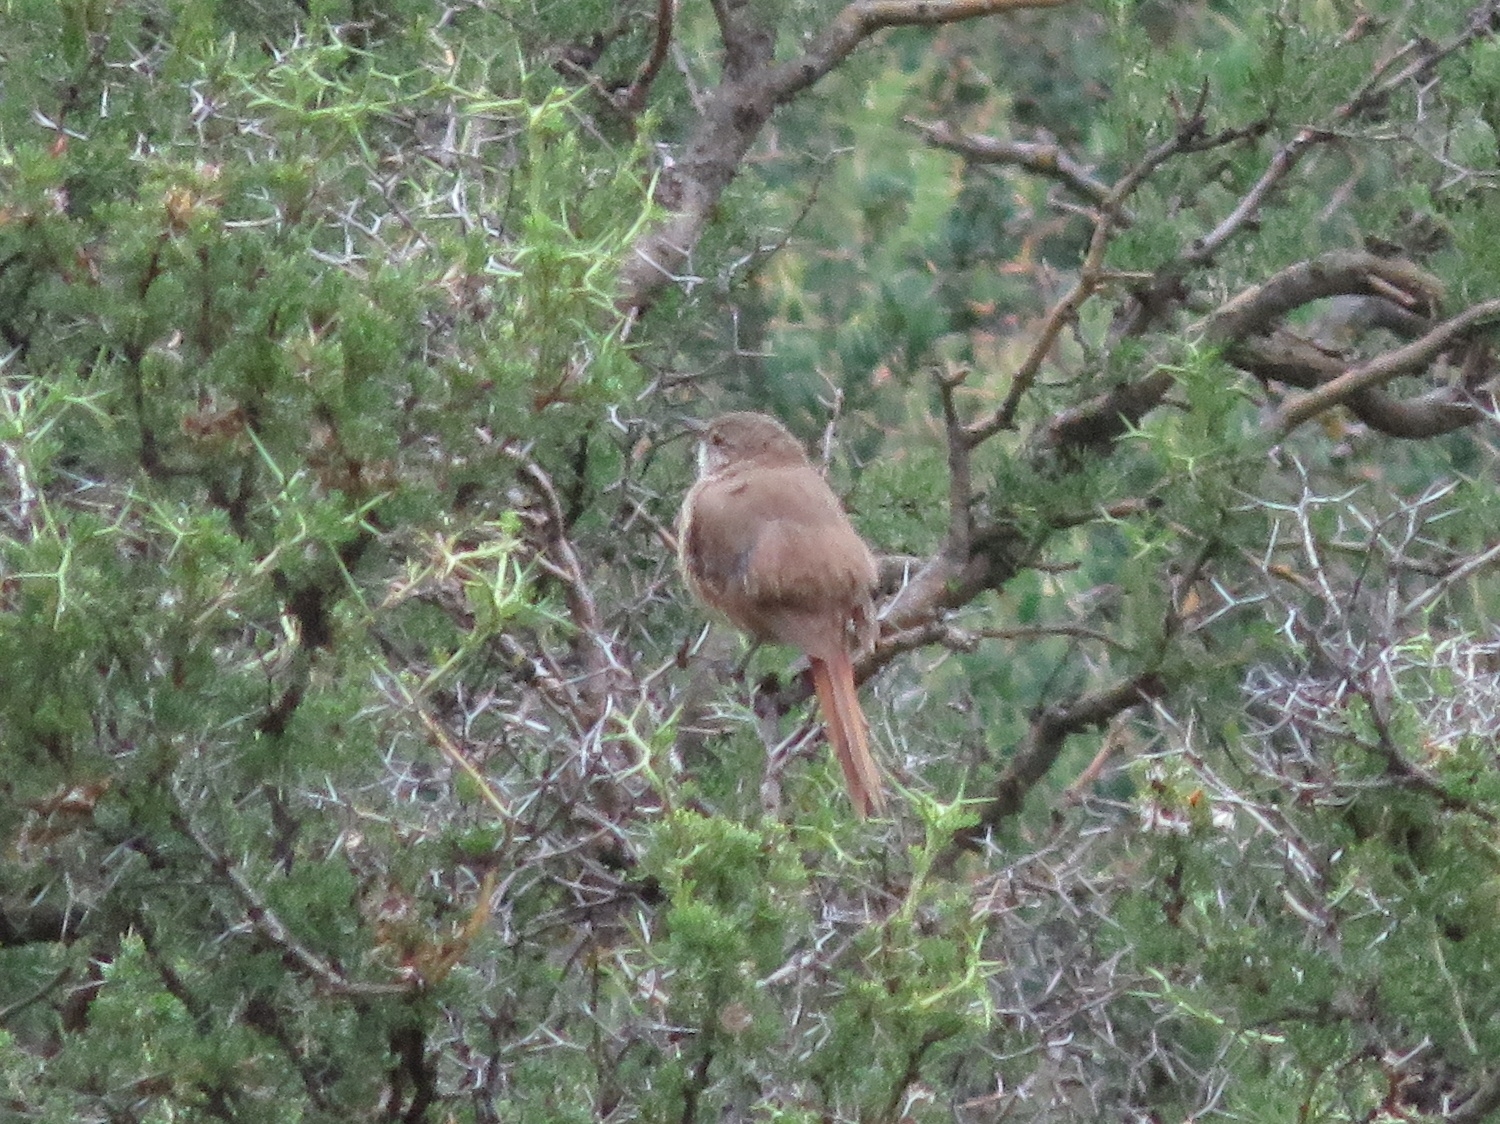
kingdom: Animalia
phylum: Chordata
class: Aves
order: Passeriformes
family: Furnariidae
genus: Asthenes
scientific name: Asthenes modesta
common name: Cordilleran canastero
